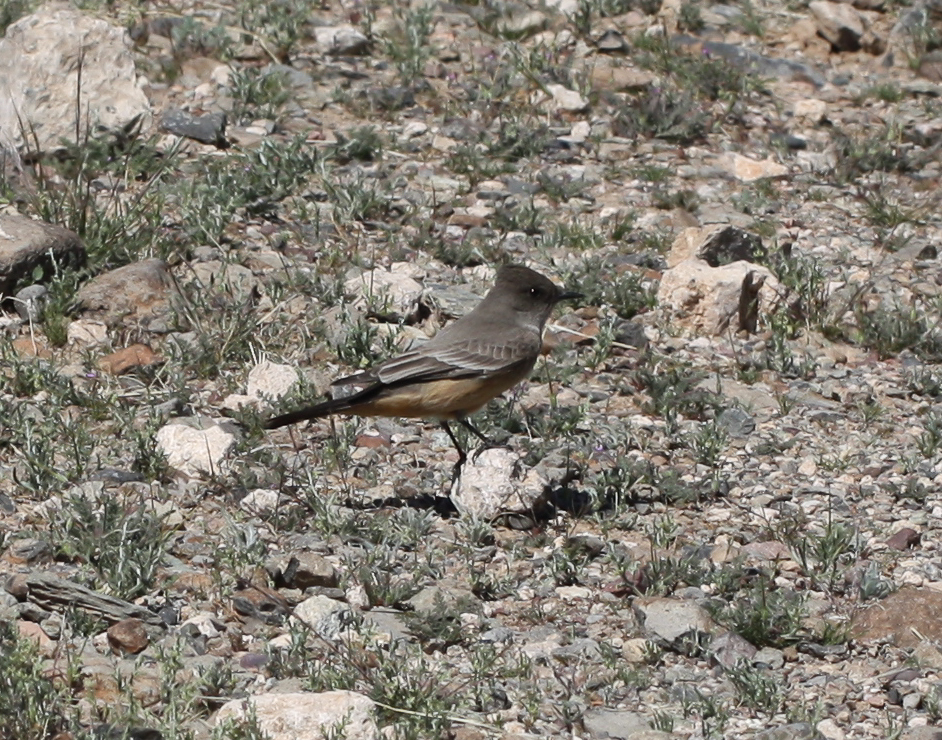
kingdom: Animalia
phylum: Chordata
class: Aves
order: Passeriformes
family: Tyrannidae
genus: Sayornis
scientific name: Sayornis saya
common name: Say's phoebe
